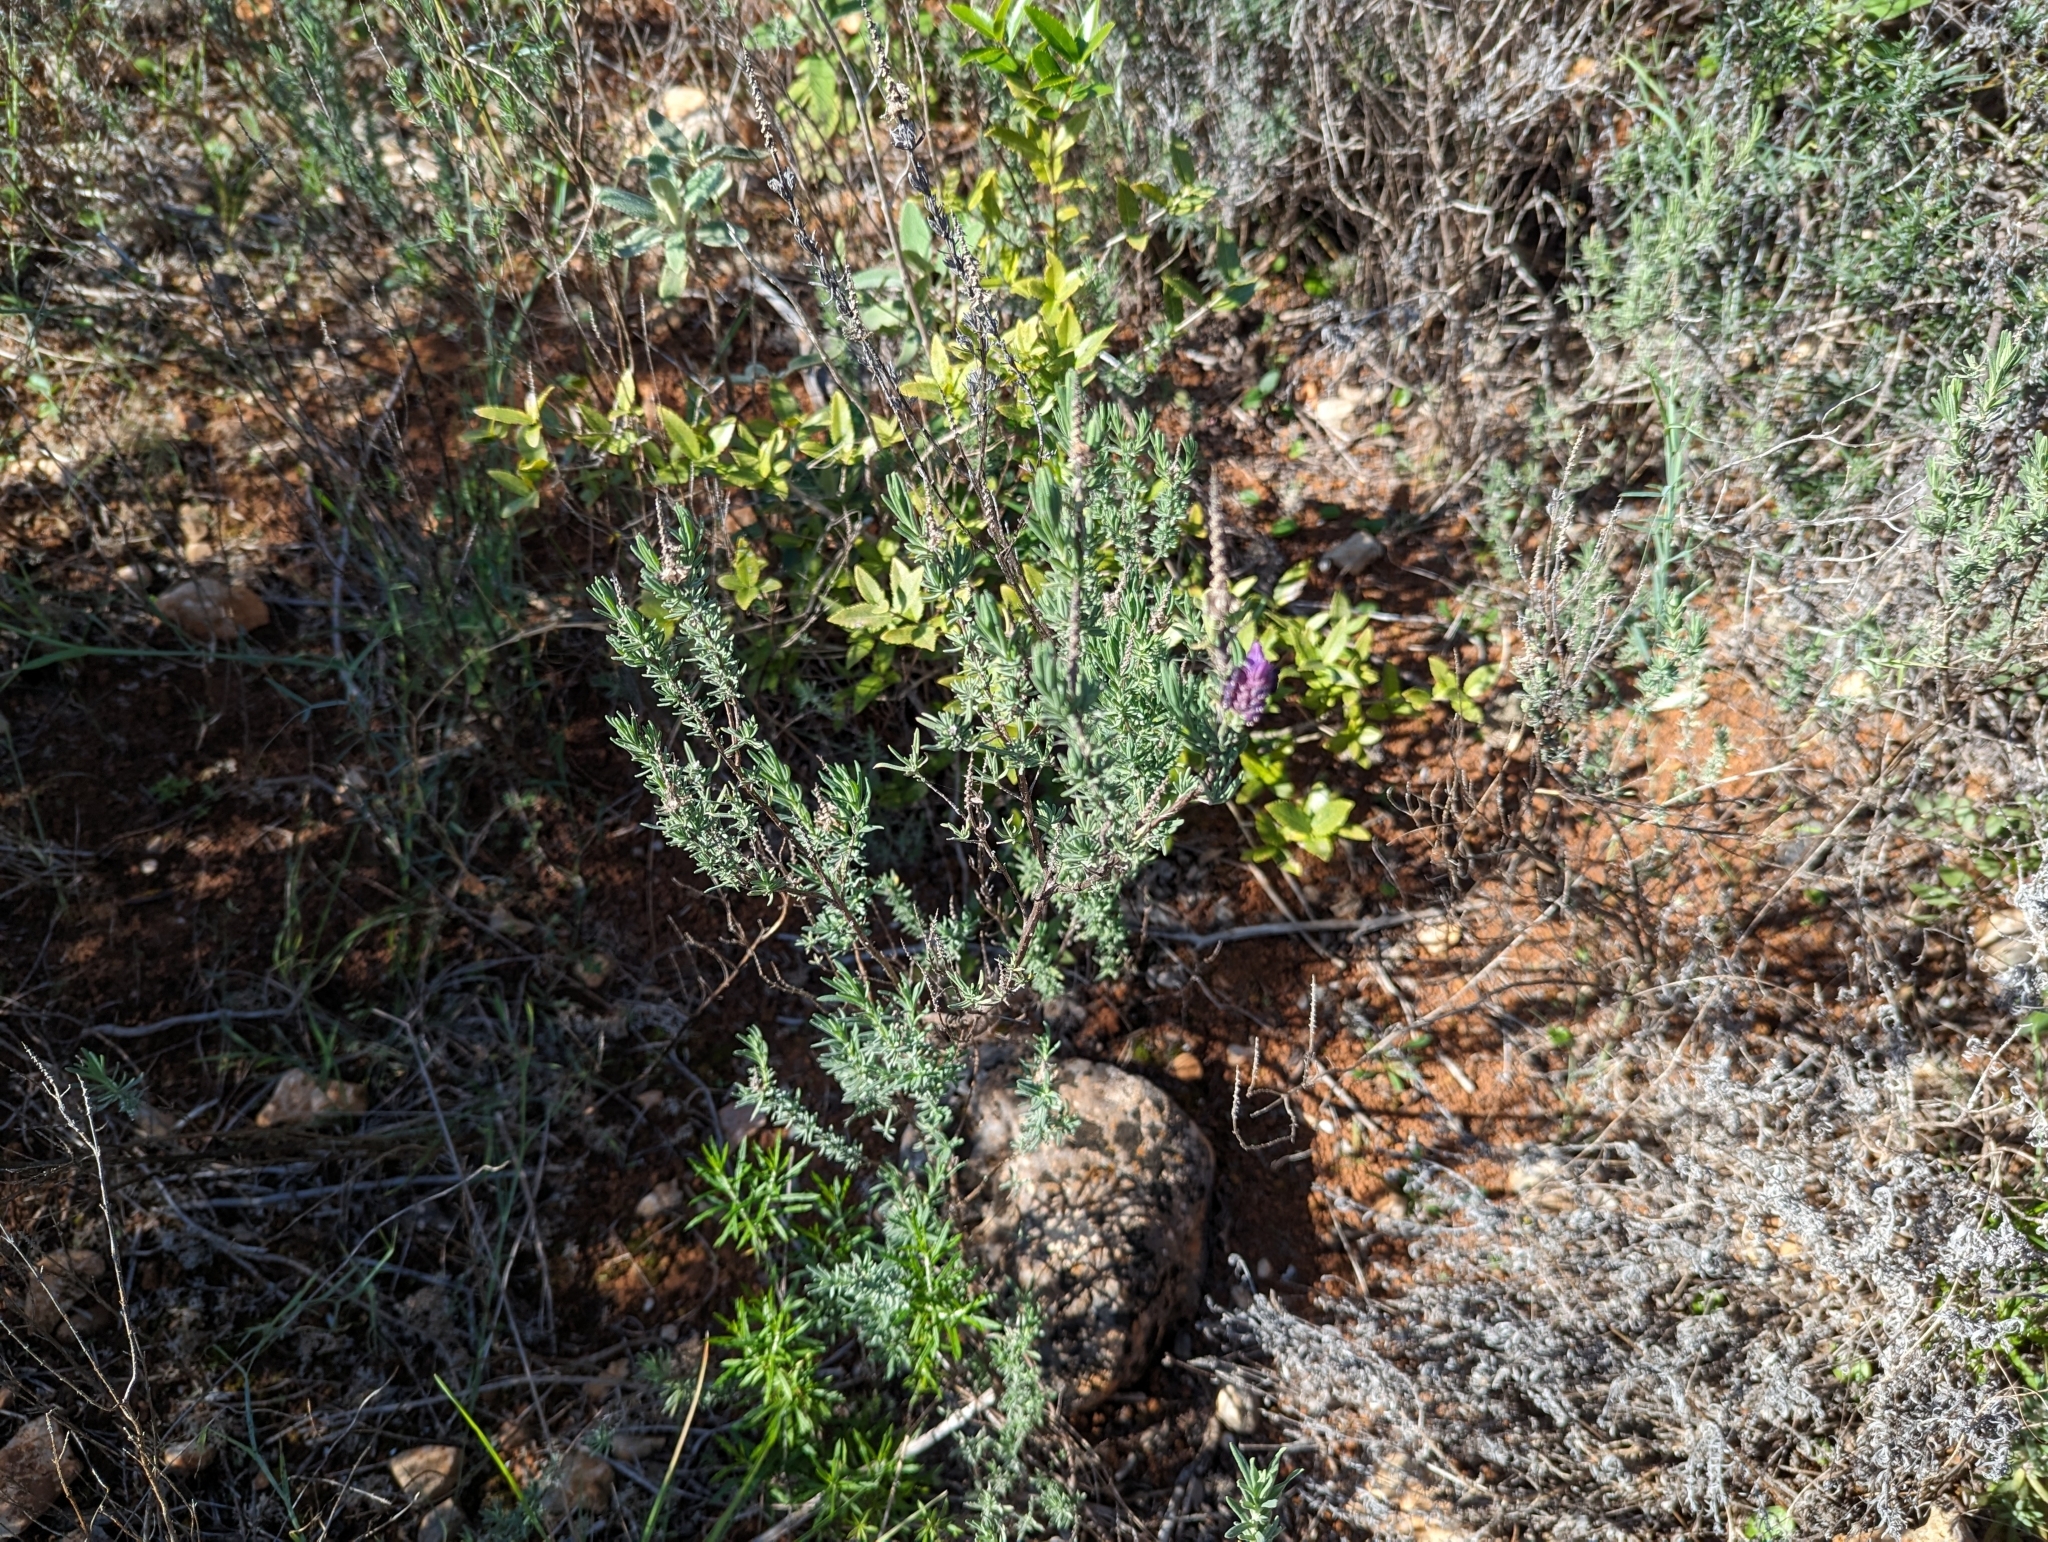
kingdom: Plantae
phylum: Tracheophyta
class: Magnoliopsida
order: Lamiales
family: Lamiaceae
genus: Lavandula
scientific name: Lavandula stoechas
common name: French lavender
